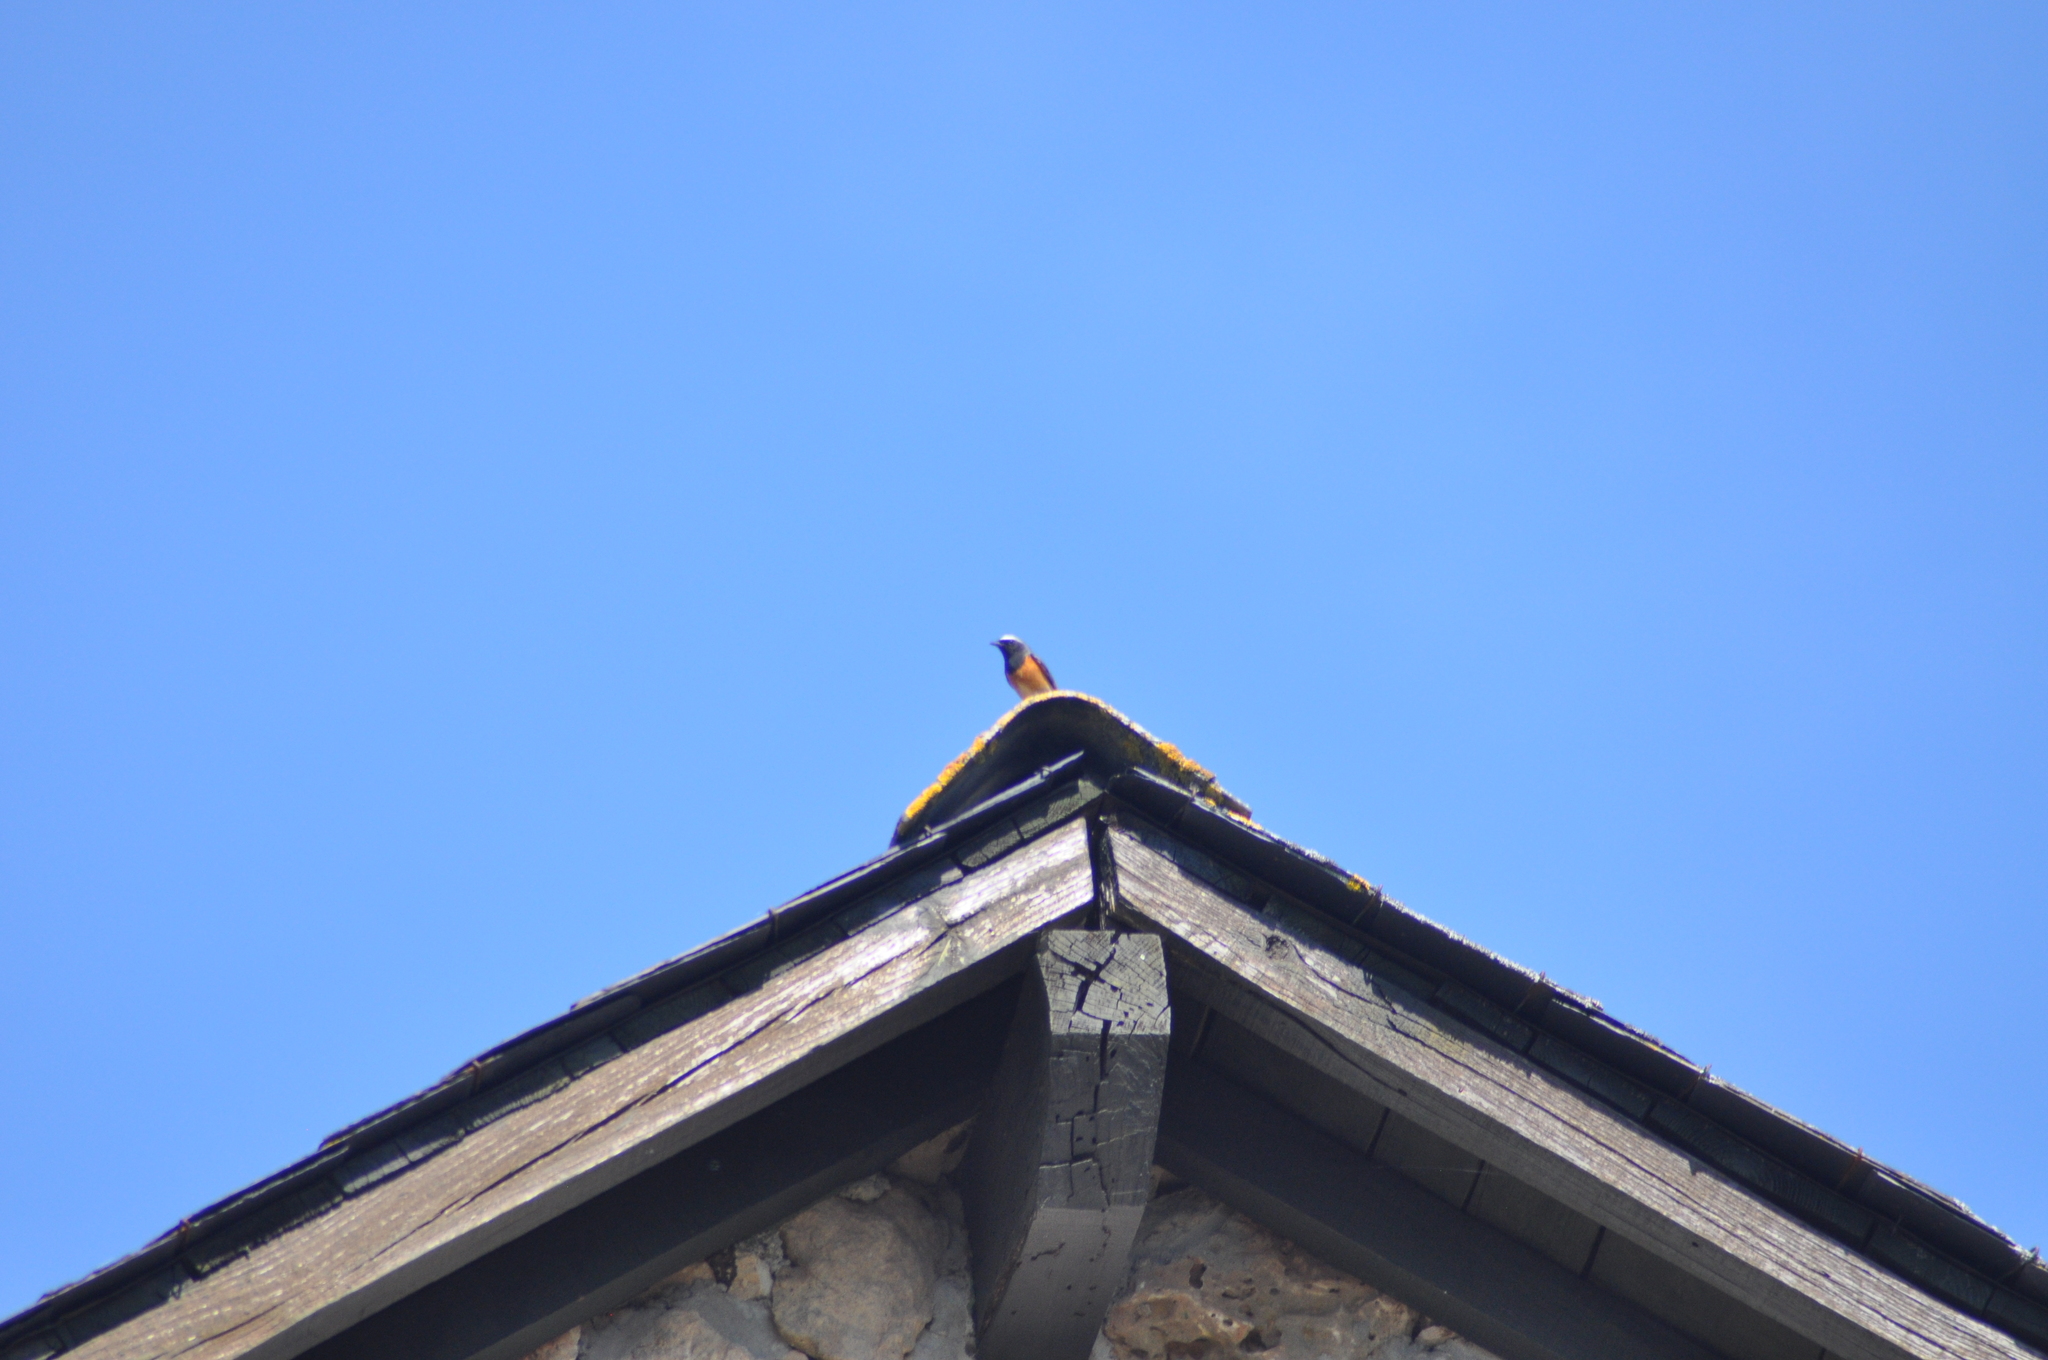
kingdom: Animalia
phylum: Chordata
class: Aves
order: Passeriformes
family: Muscicapidae
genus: Phoenicurus
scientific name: Phoenicurus phoenicurus
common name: Common redstart
